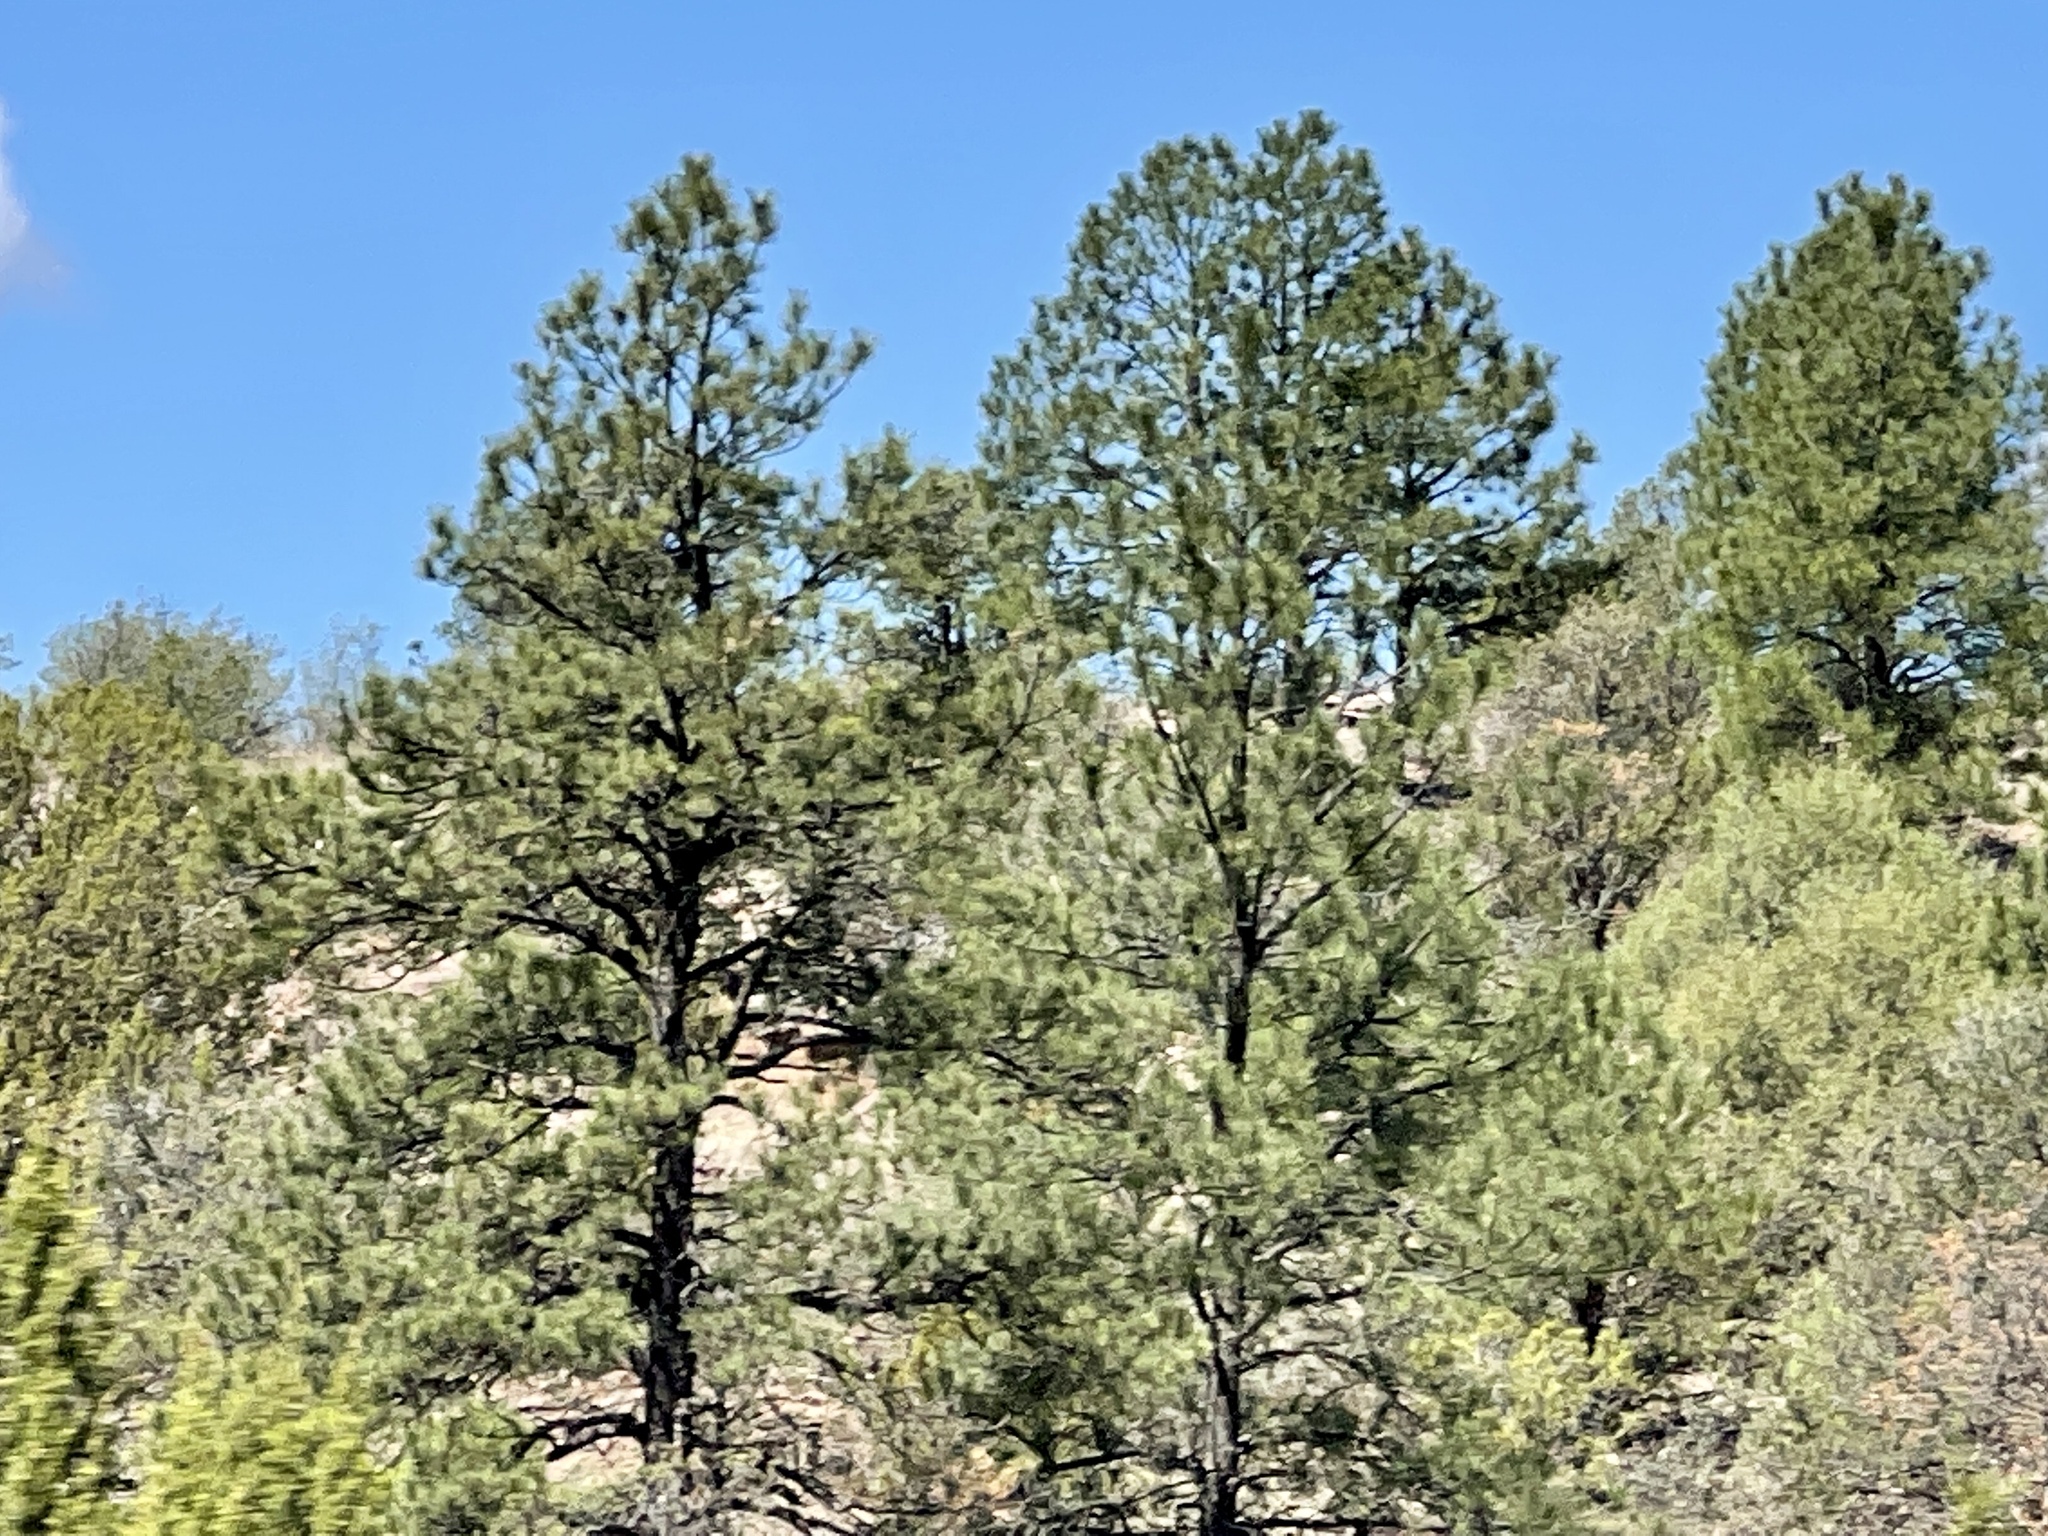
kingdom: Plantae
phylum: Tracheophyta
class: Pinopsida
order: Pinales
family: Pinaceae
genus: Pinus
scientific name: Pinus ponderosa
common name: Western yellow-pine
